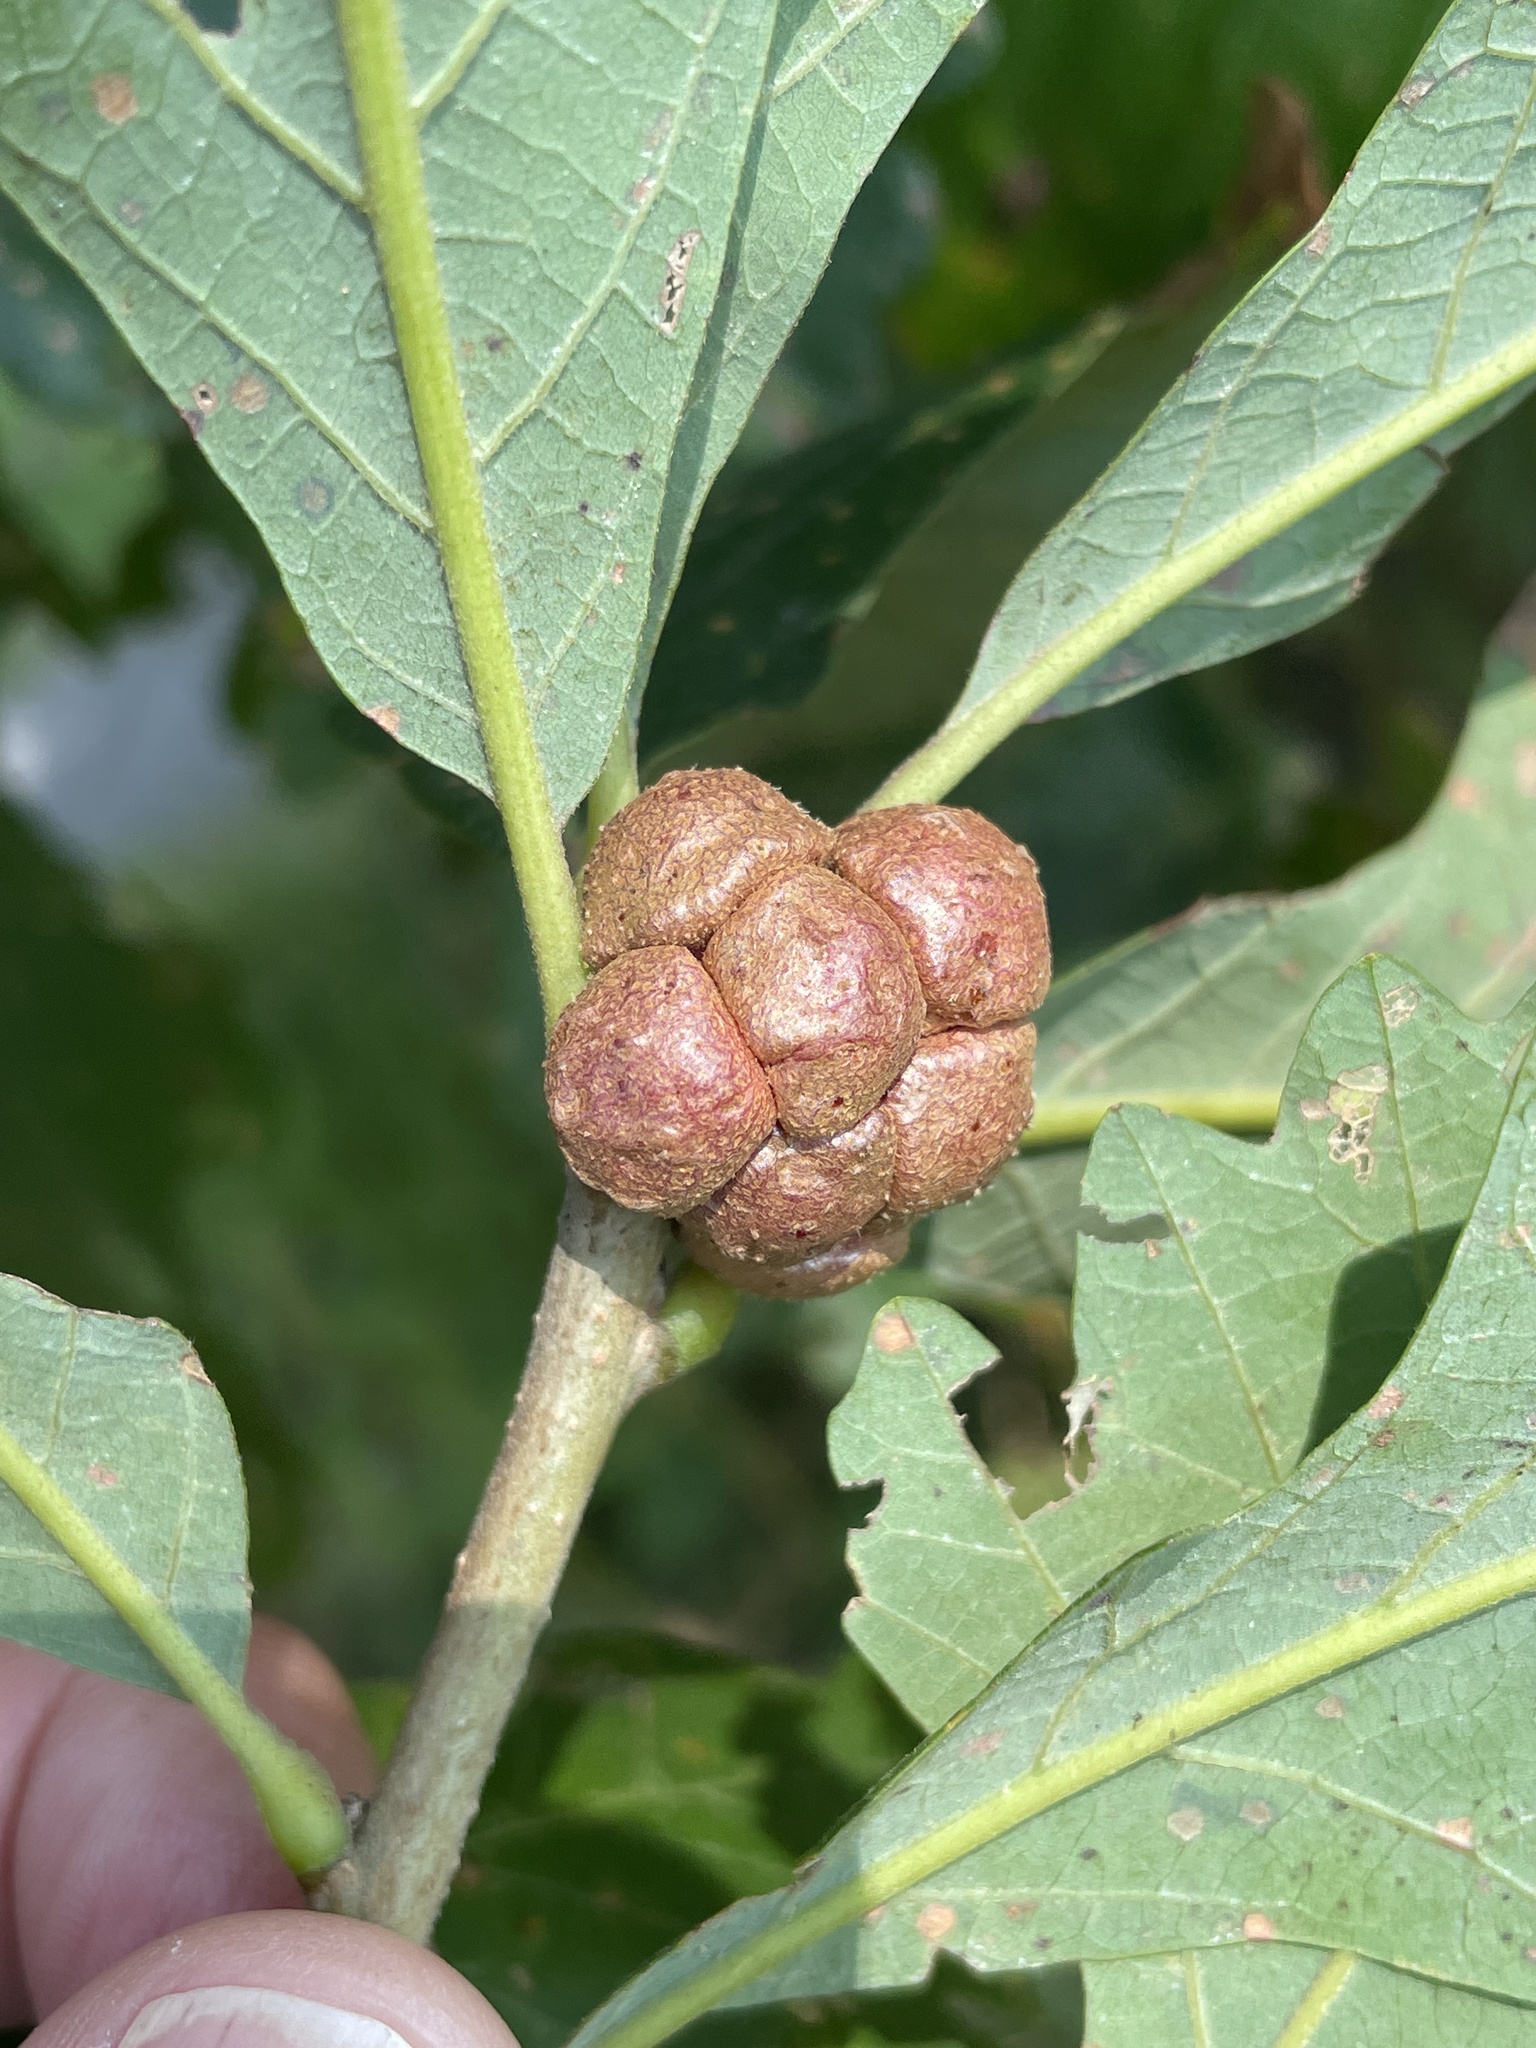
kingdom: Animalia
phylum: Arthropoda
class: Insecta
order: Hymenoptera
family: Cynipidae
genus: Andricus
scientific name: Andricus
